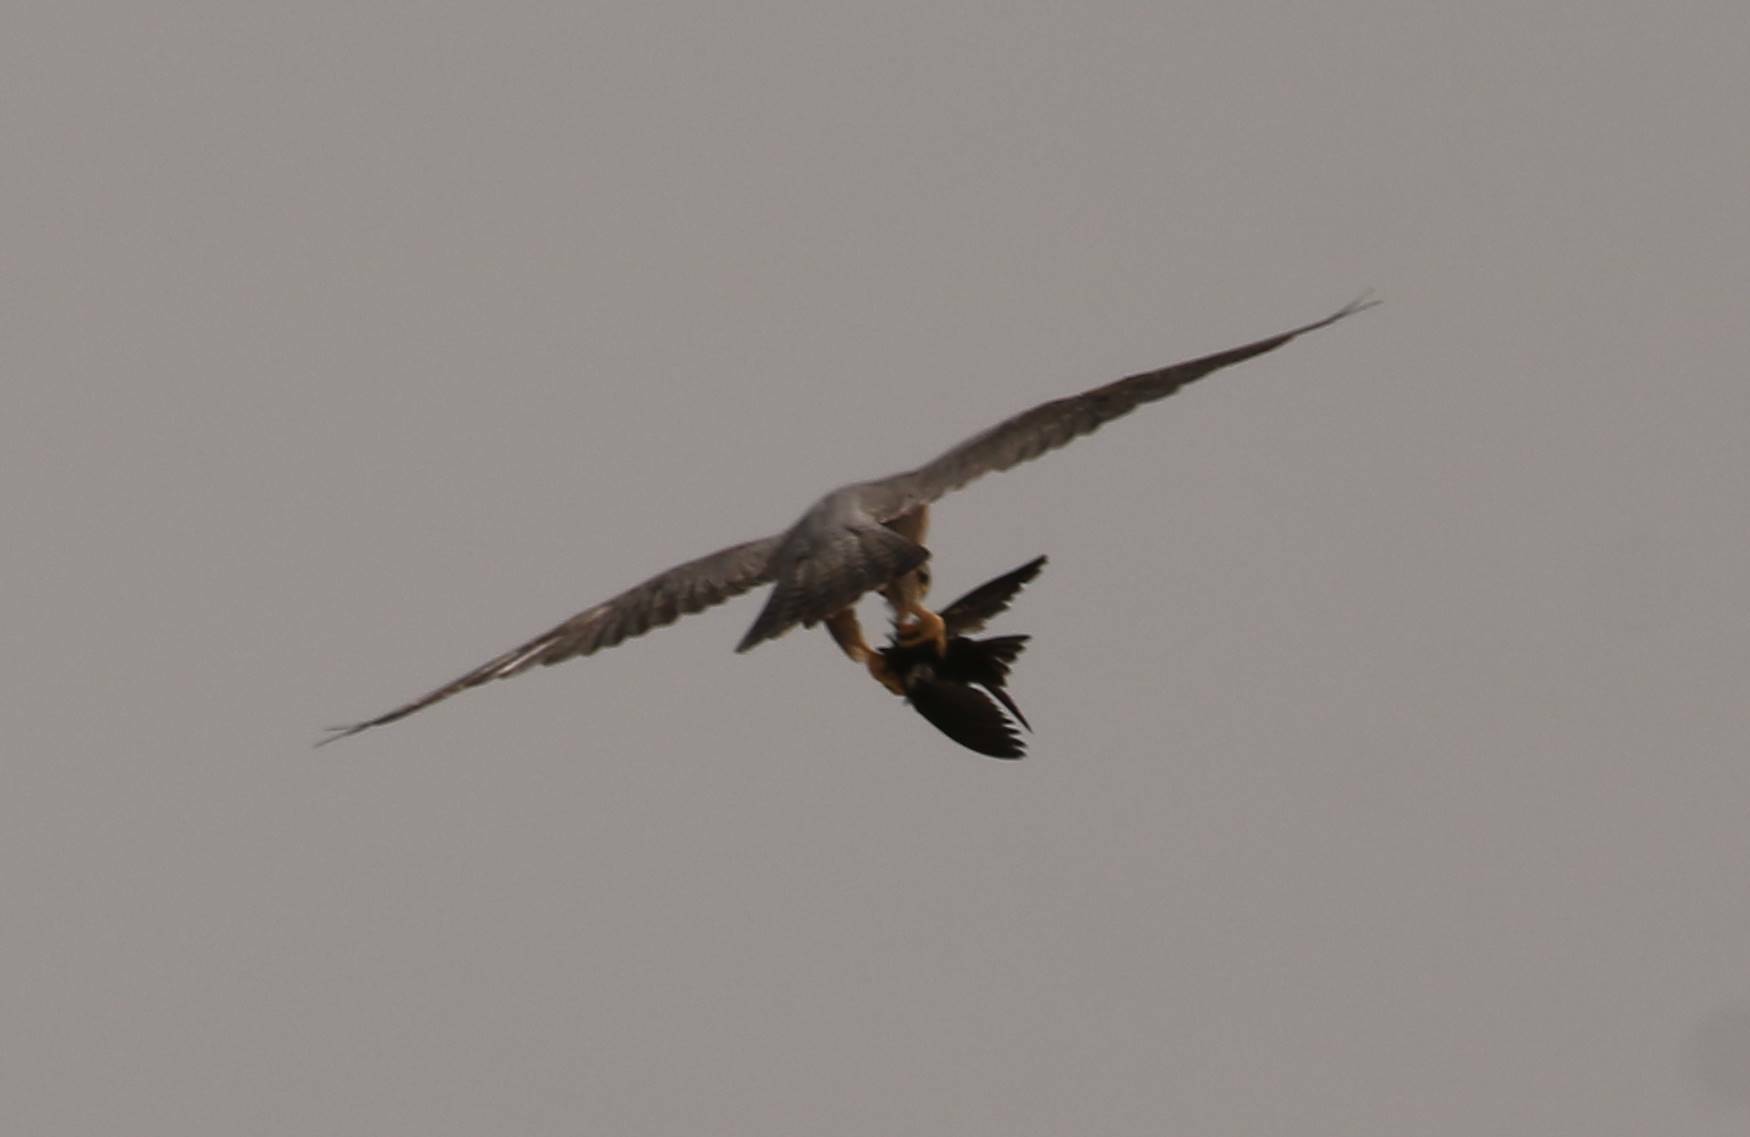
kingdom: Animalia
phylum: Chordata
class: Aves
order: Falconiformes
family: Falconidae
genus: Falco
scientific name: Falco biarmicus
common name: Lanner falcon
